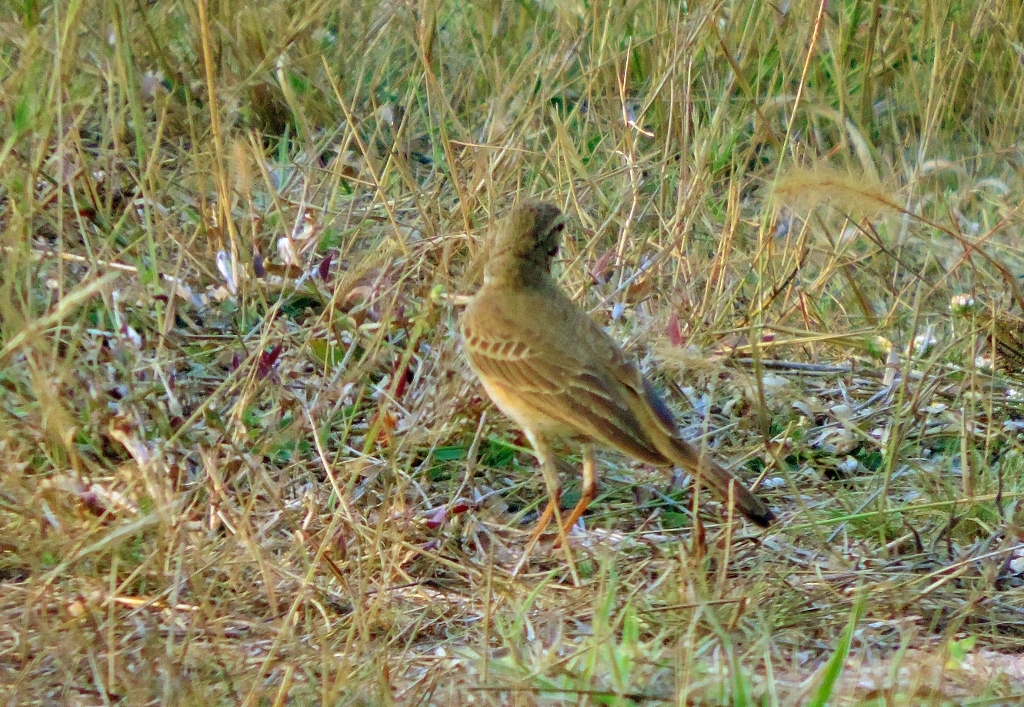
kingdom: Animalia
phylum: Chordata
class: Aves
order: Passeriformes
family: Motacillidae
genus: Anthus
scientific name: Anthus vaalensis
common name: Buffy pipit
